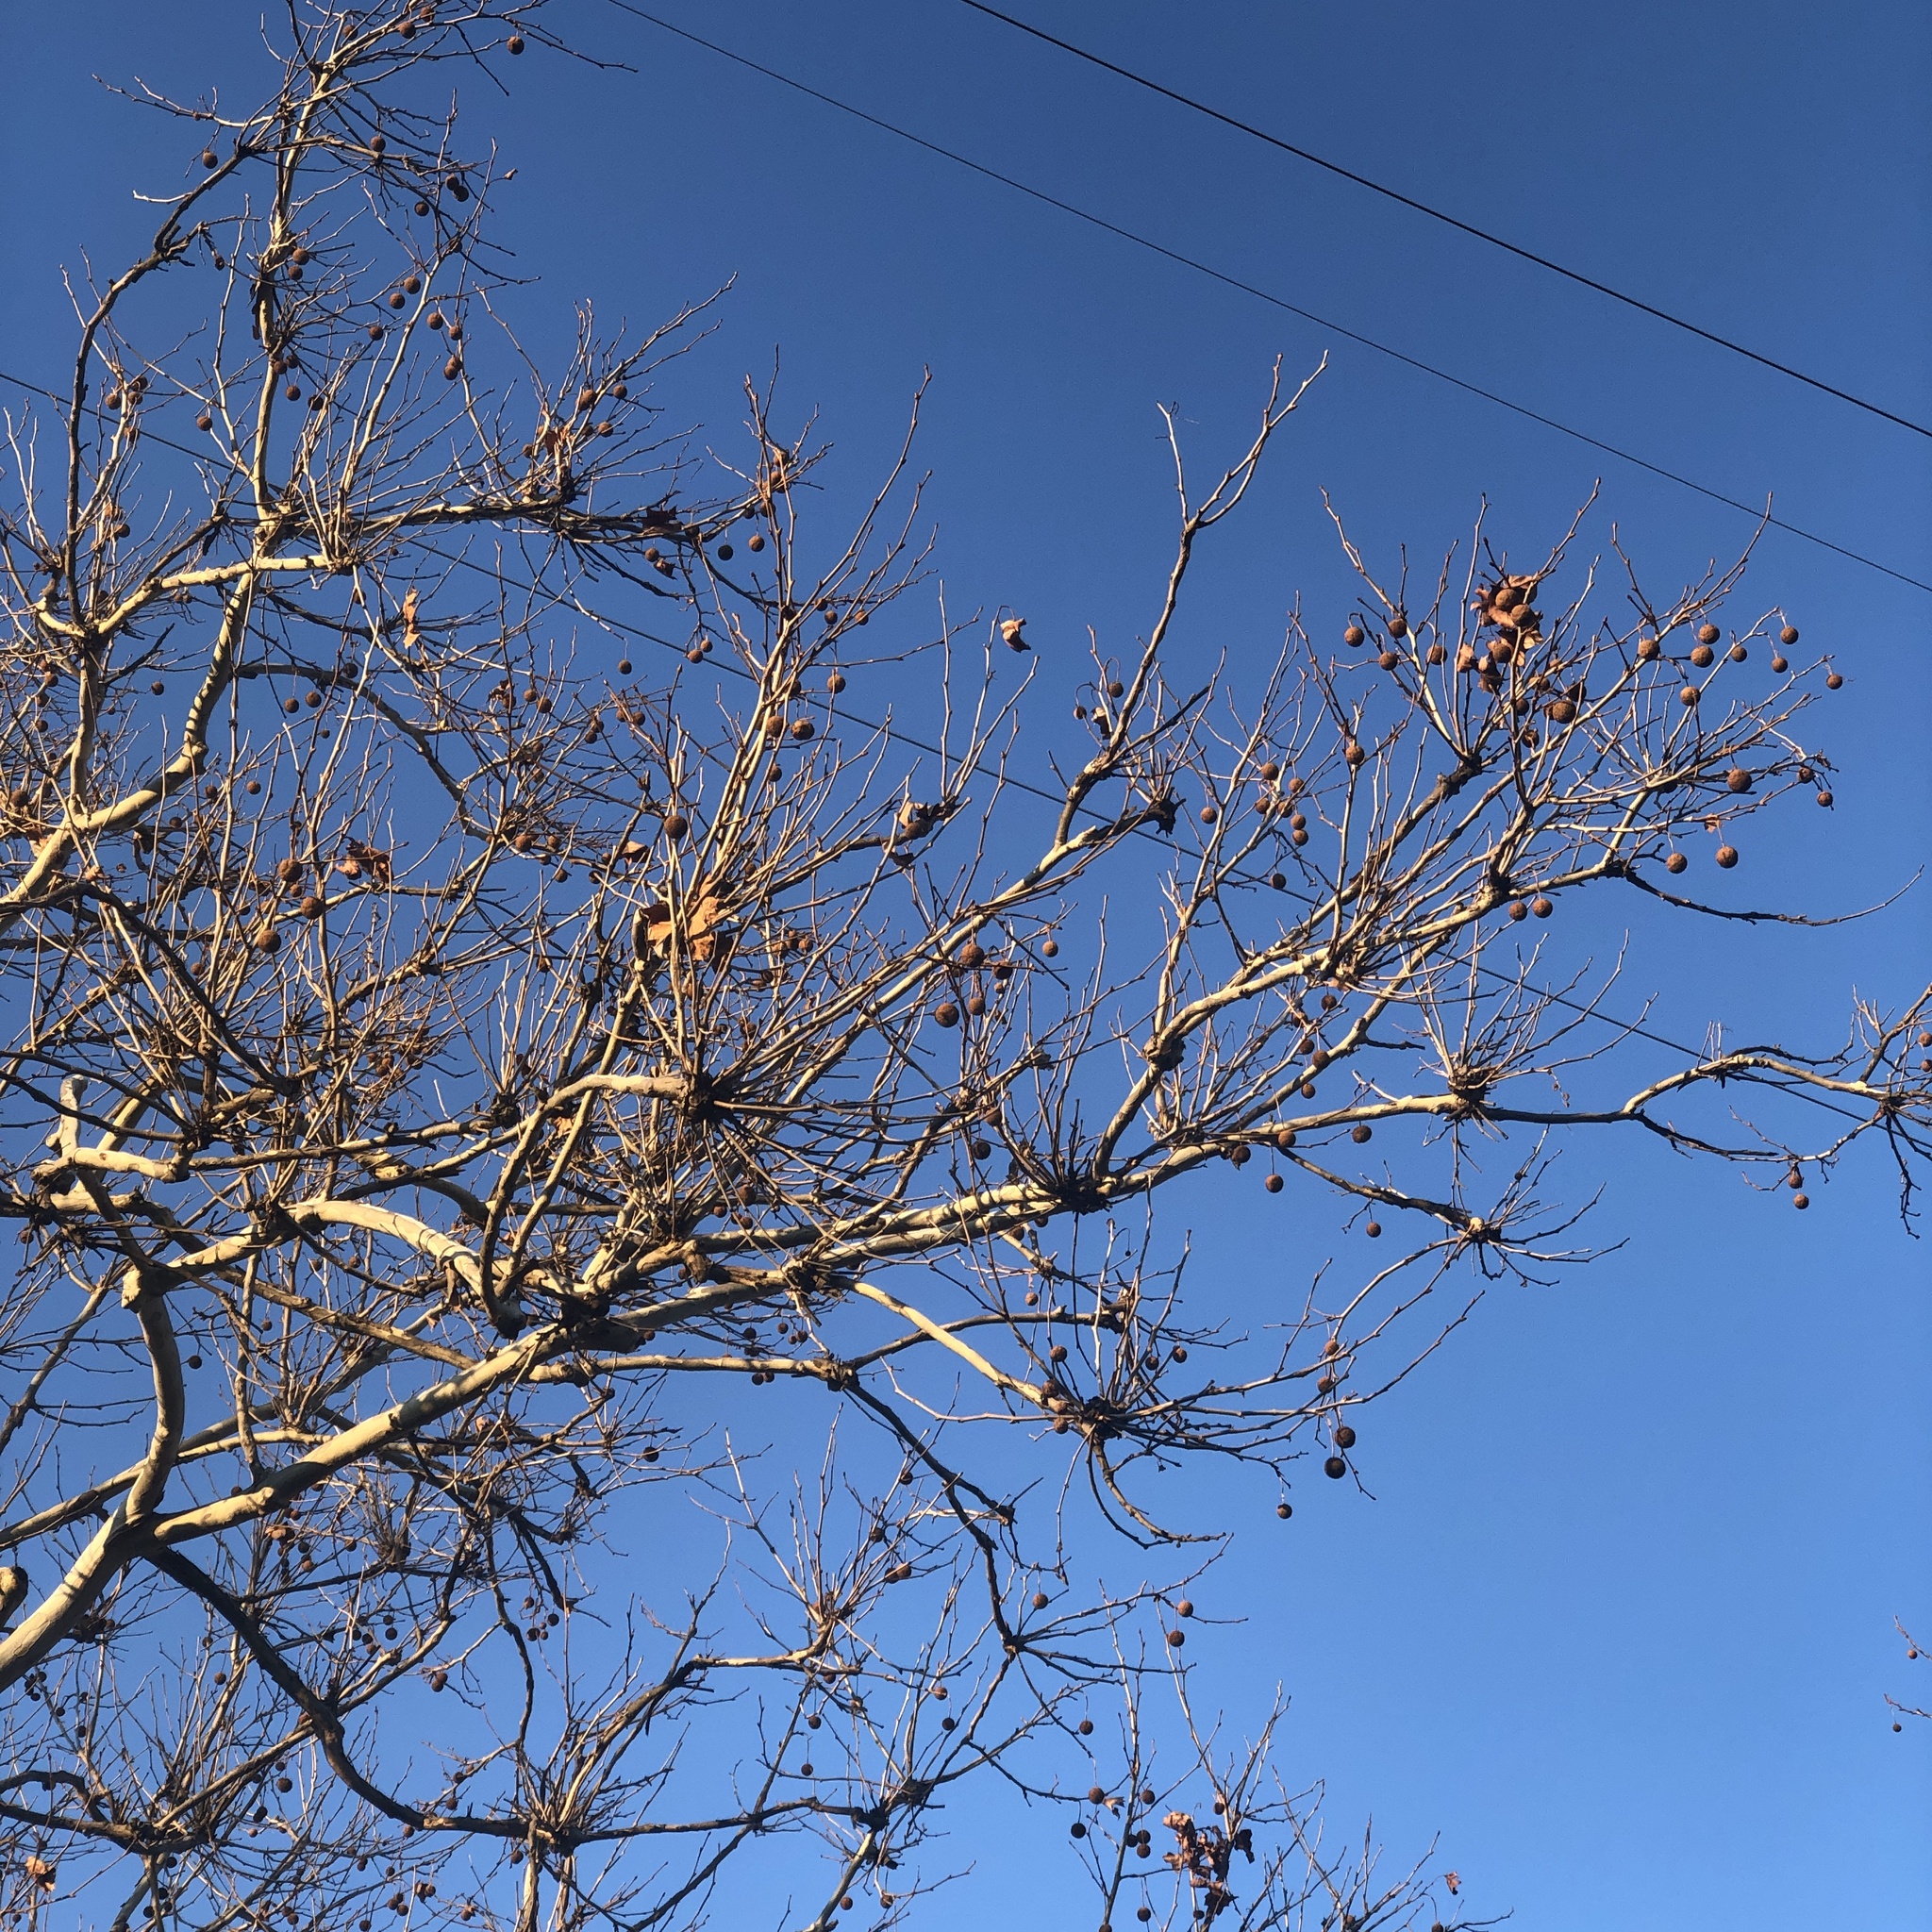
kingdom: Plantae
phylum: Tracheophyta
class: Magnoliopsida
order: Proteales
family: Platanaceae
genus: Platanus
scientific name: Platanus occidentalis
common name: American sycamore
